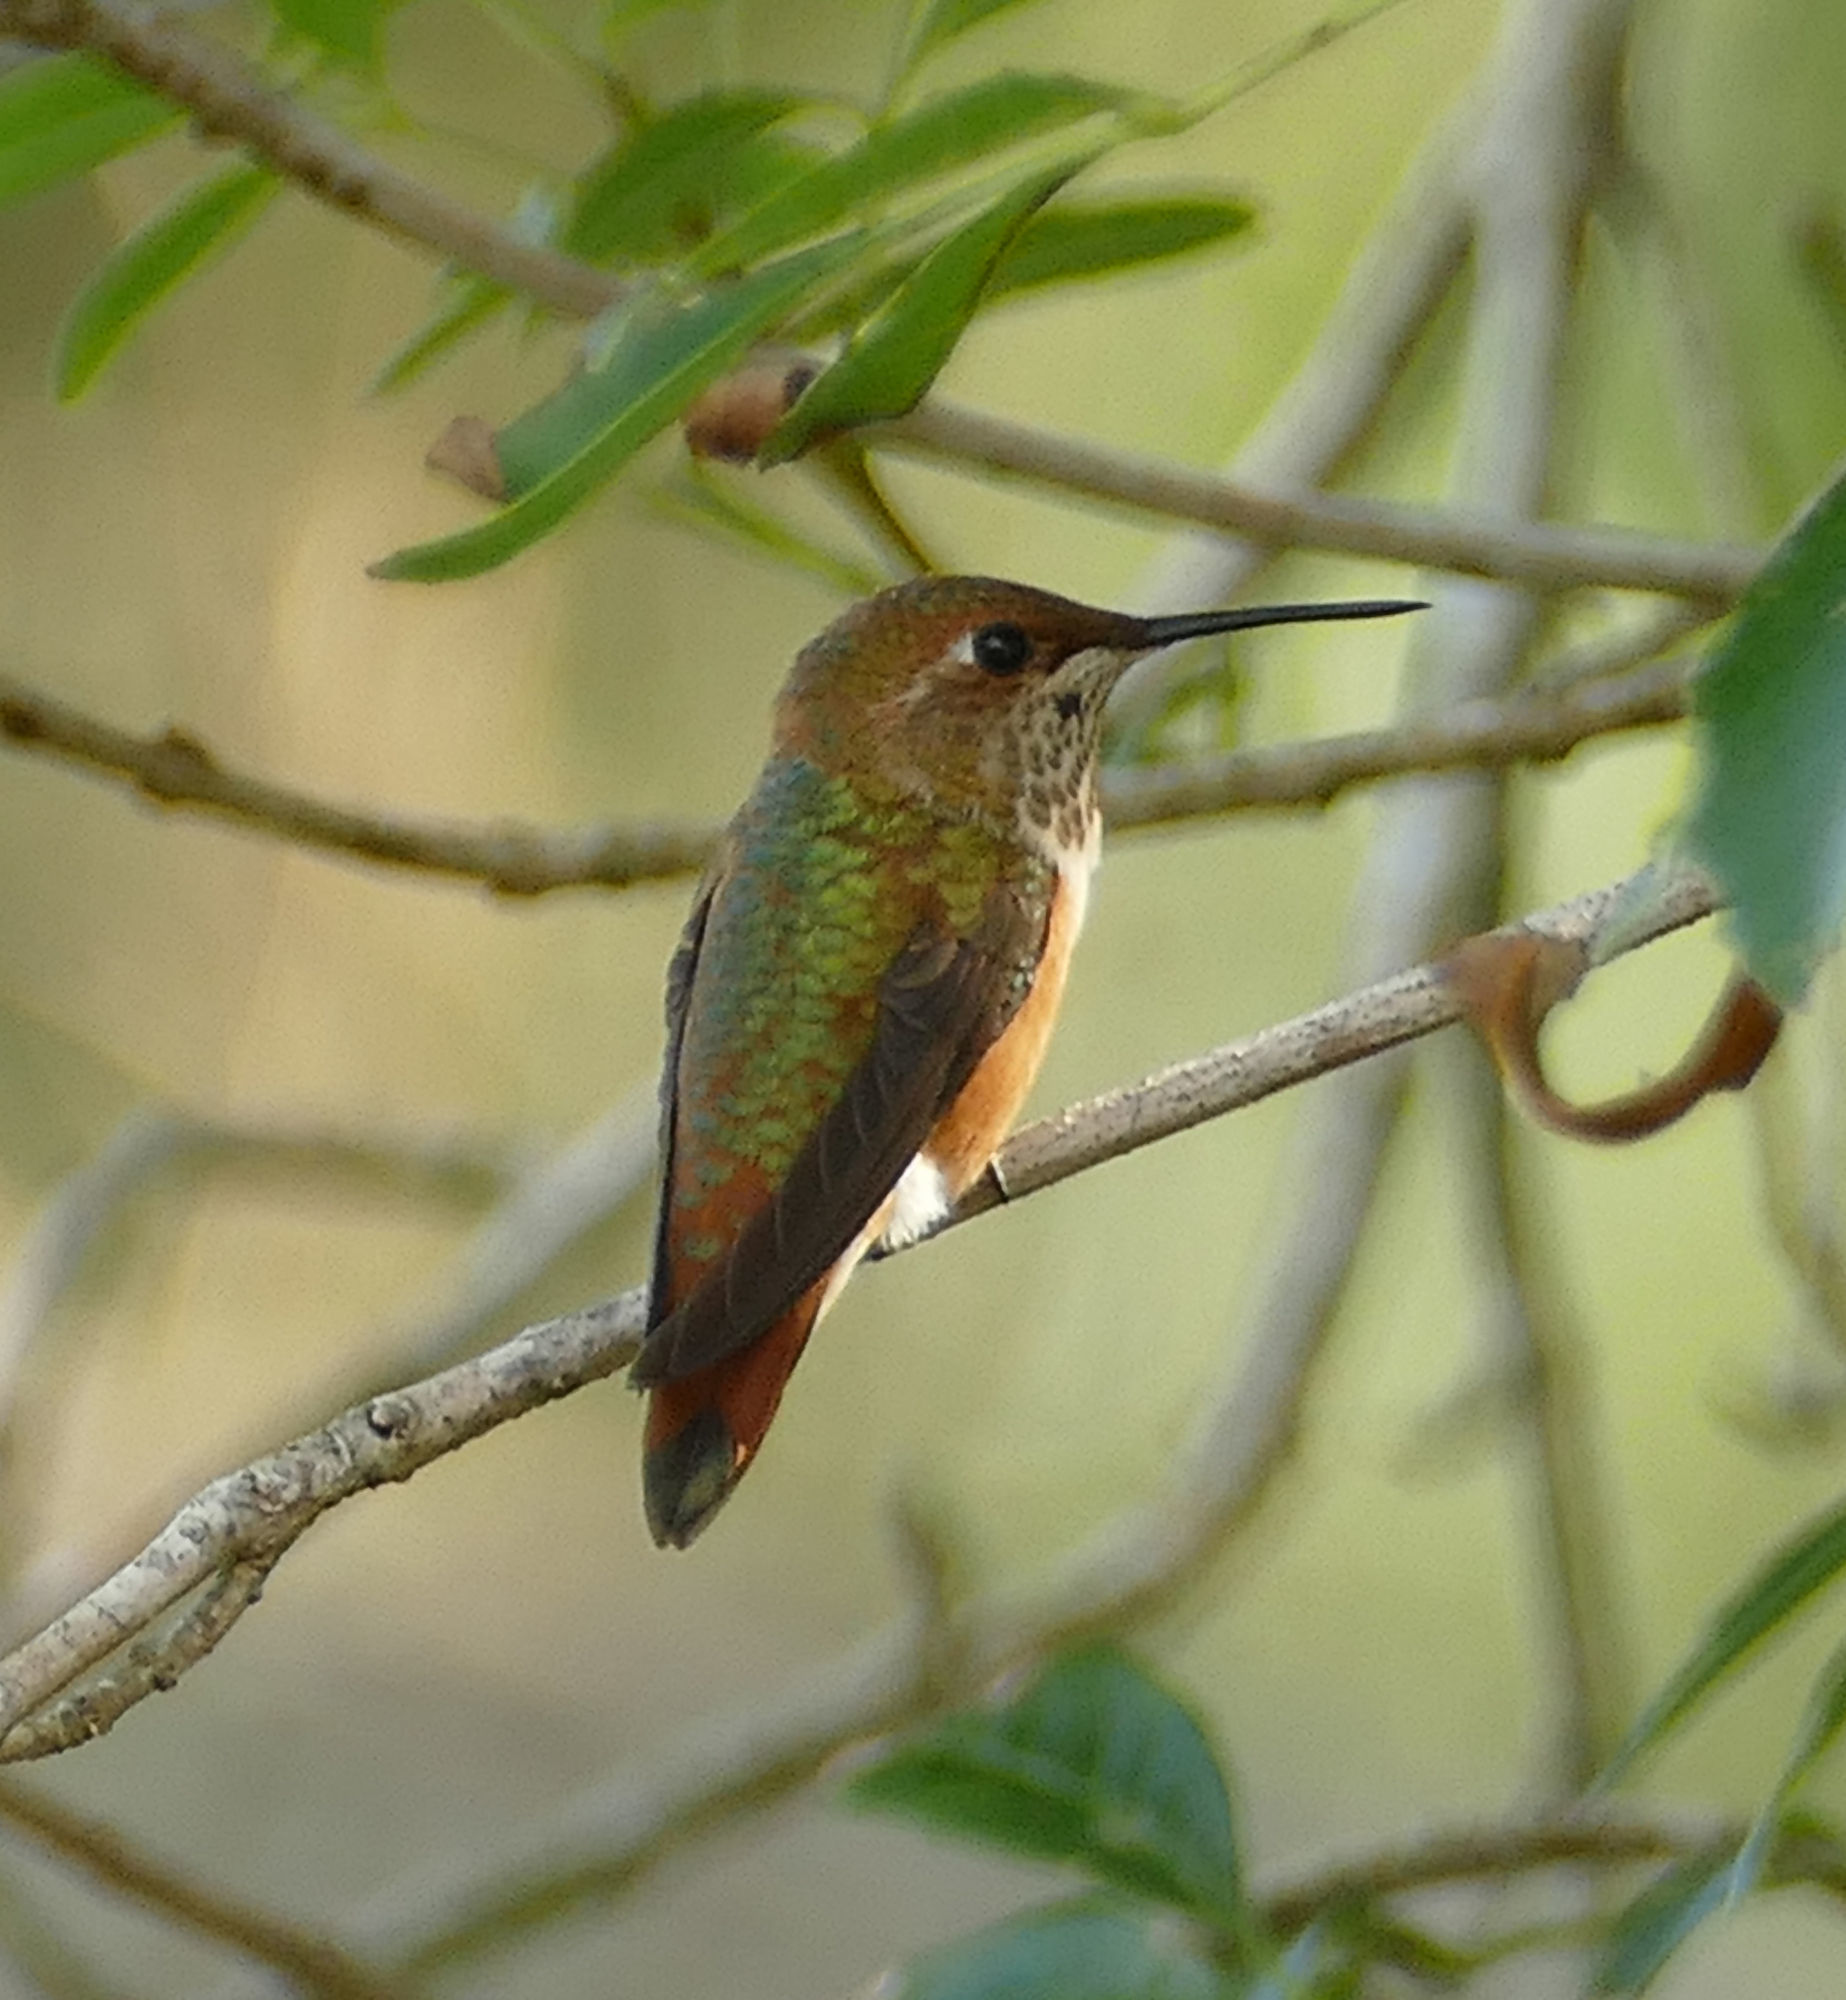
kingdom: Animalia
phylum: Chordata
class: Aves
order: Apodiformes
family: Trochilidae
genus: Selasphorus
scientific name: Selasphorus rufus
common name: Rufous hummingbird
